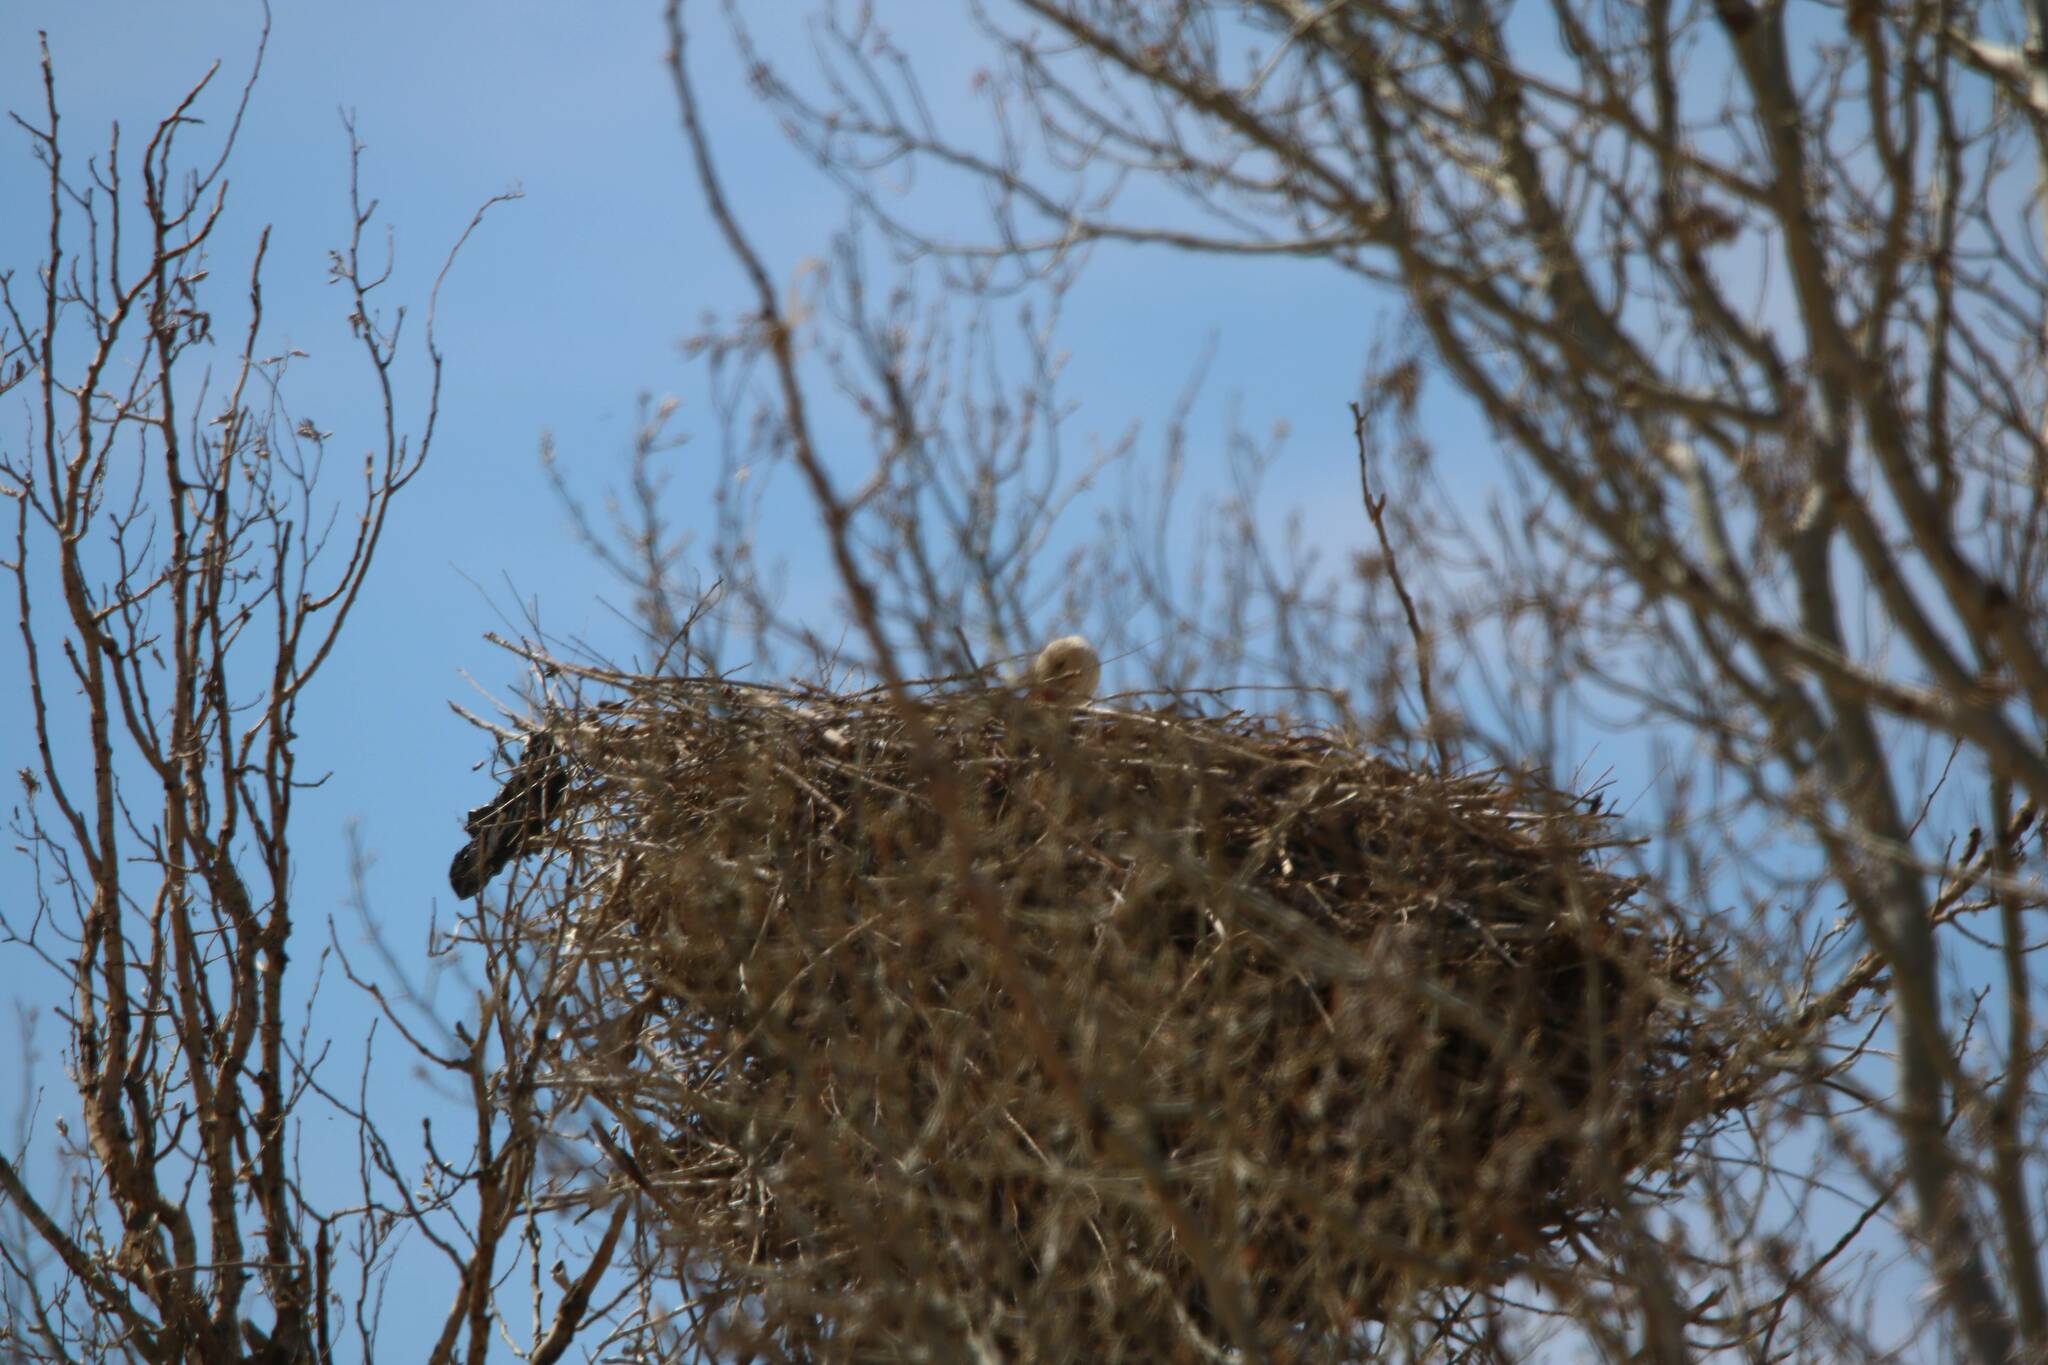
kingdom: Animalia
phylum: Chordata
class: Aves
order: Ciconiiformes
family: Ciconiidae
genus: Ciconia
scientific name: Ciconia ciconia
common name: White stork
